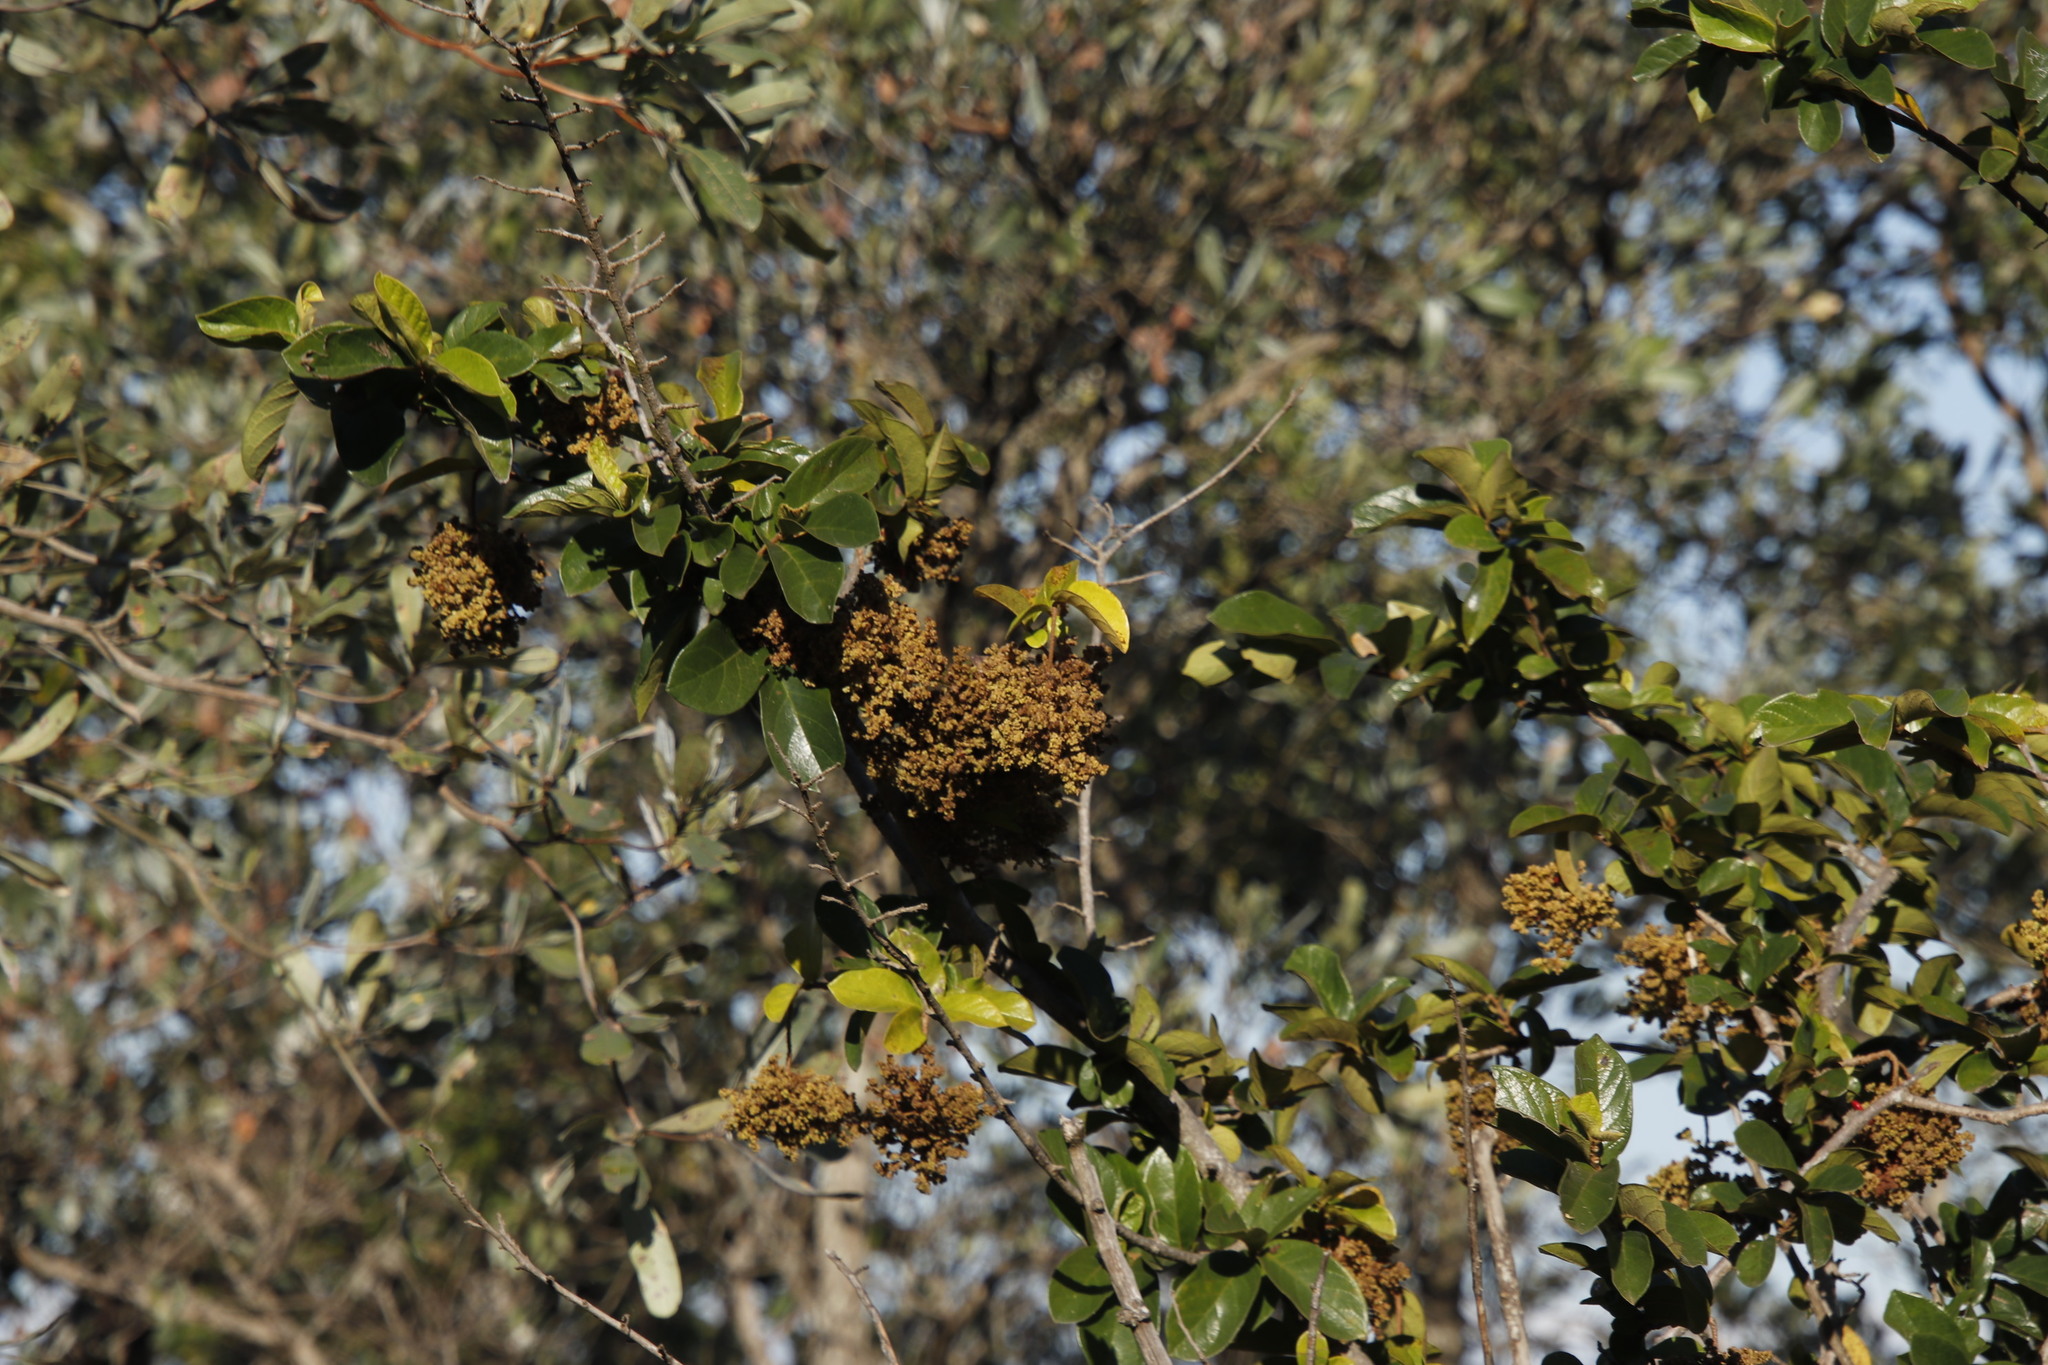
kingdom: Plantae
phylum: Tracheophyta
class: Magnoliopsida
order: Malpighiales
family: Phyllanthaceae
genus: Antidesma
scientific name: Antidesma venosum
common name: Tassel-berry
